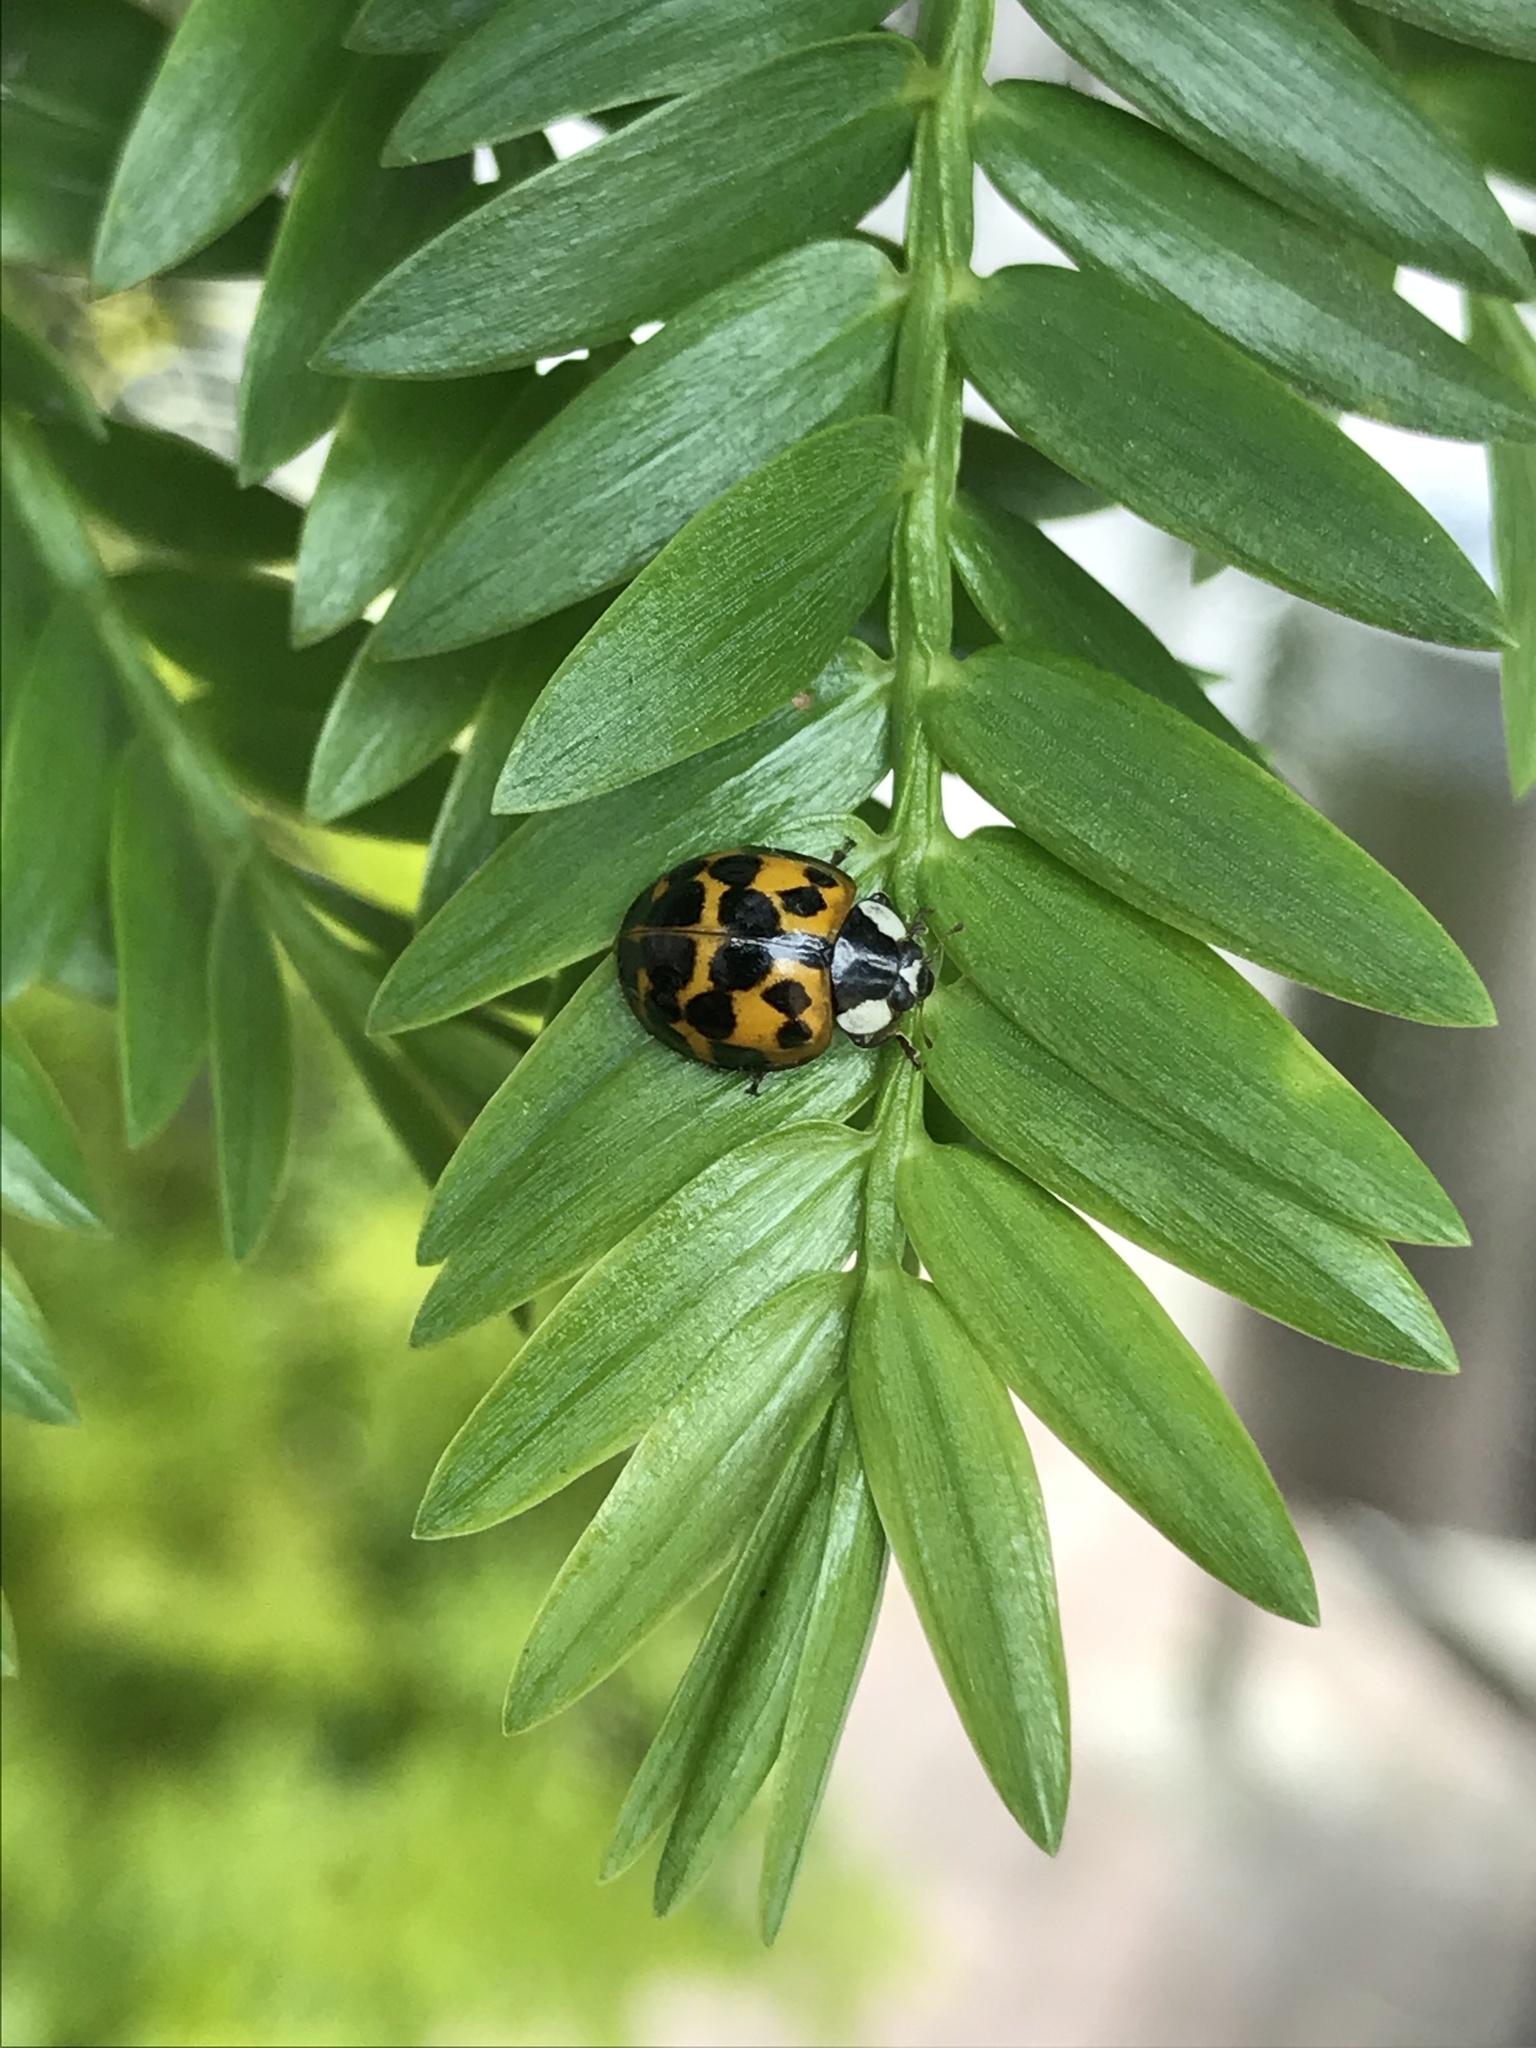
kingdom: Animalia
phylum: Arthropoda
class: Insecta
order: Coleoptera
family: Coccinellidae
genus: Harmonia
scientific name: Harmonia axyridis
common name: Harlequin ladybird
